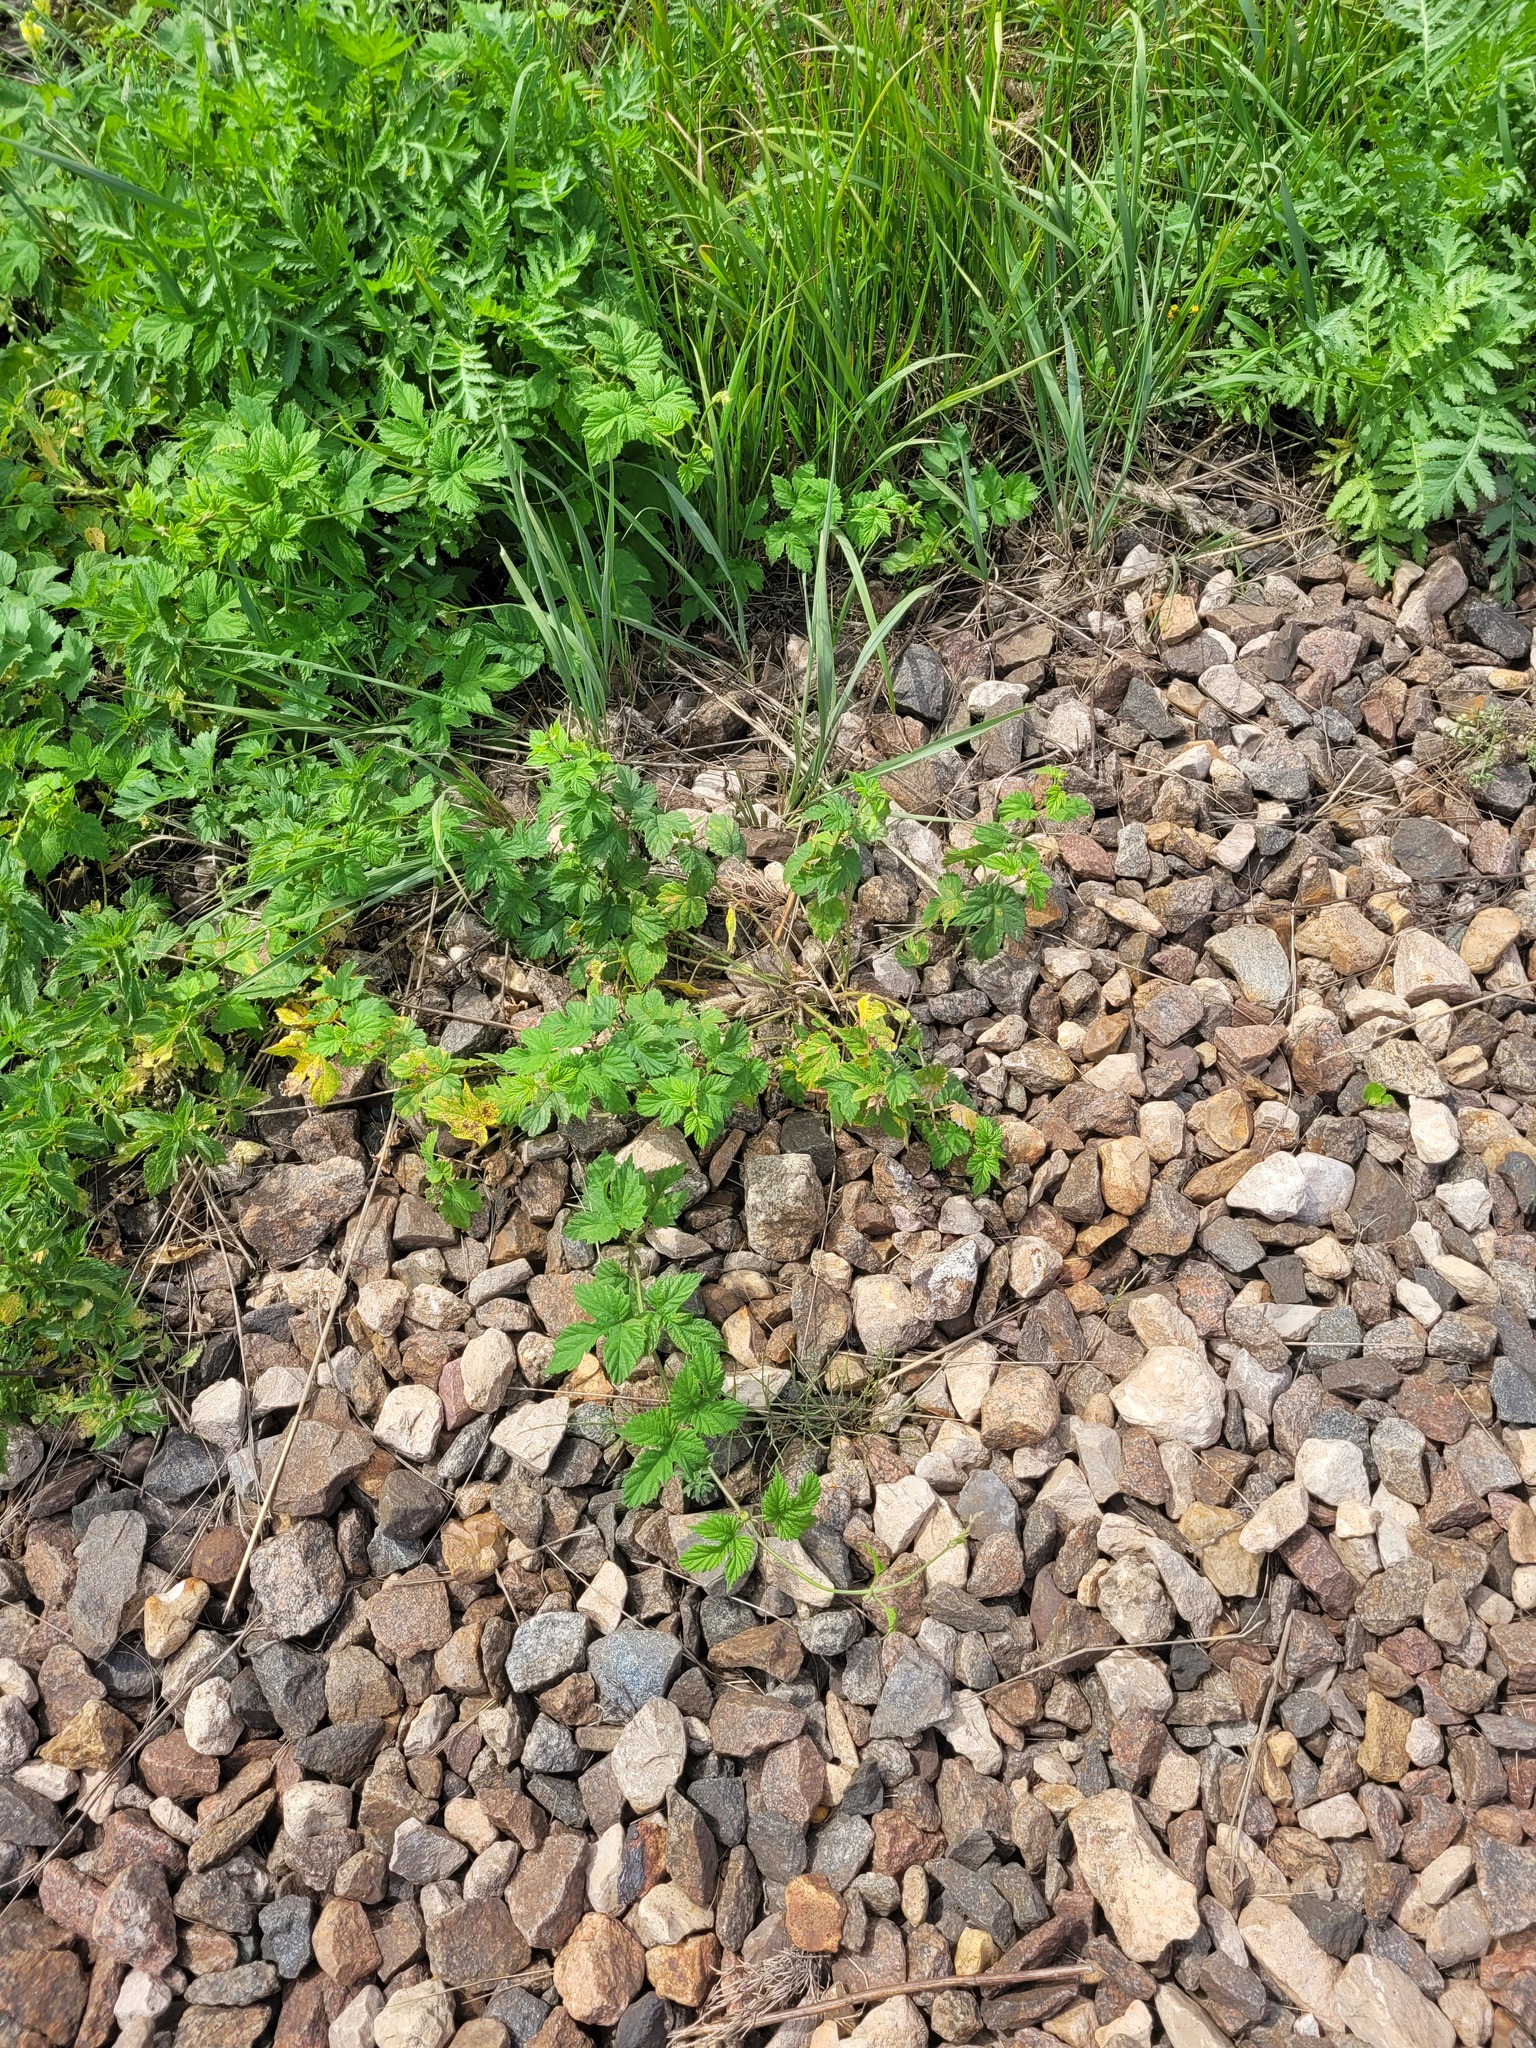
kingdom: Plantae
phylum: Tracheophyta
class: Magnoliopsida
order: Rosales
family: Cannabaceae
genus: Humulus
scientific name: Humulus lupulus
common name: Hop
